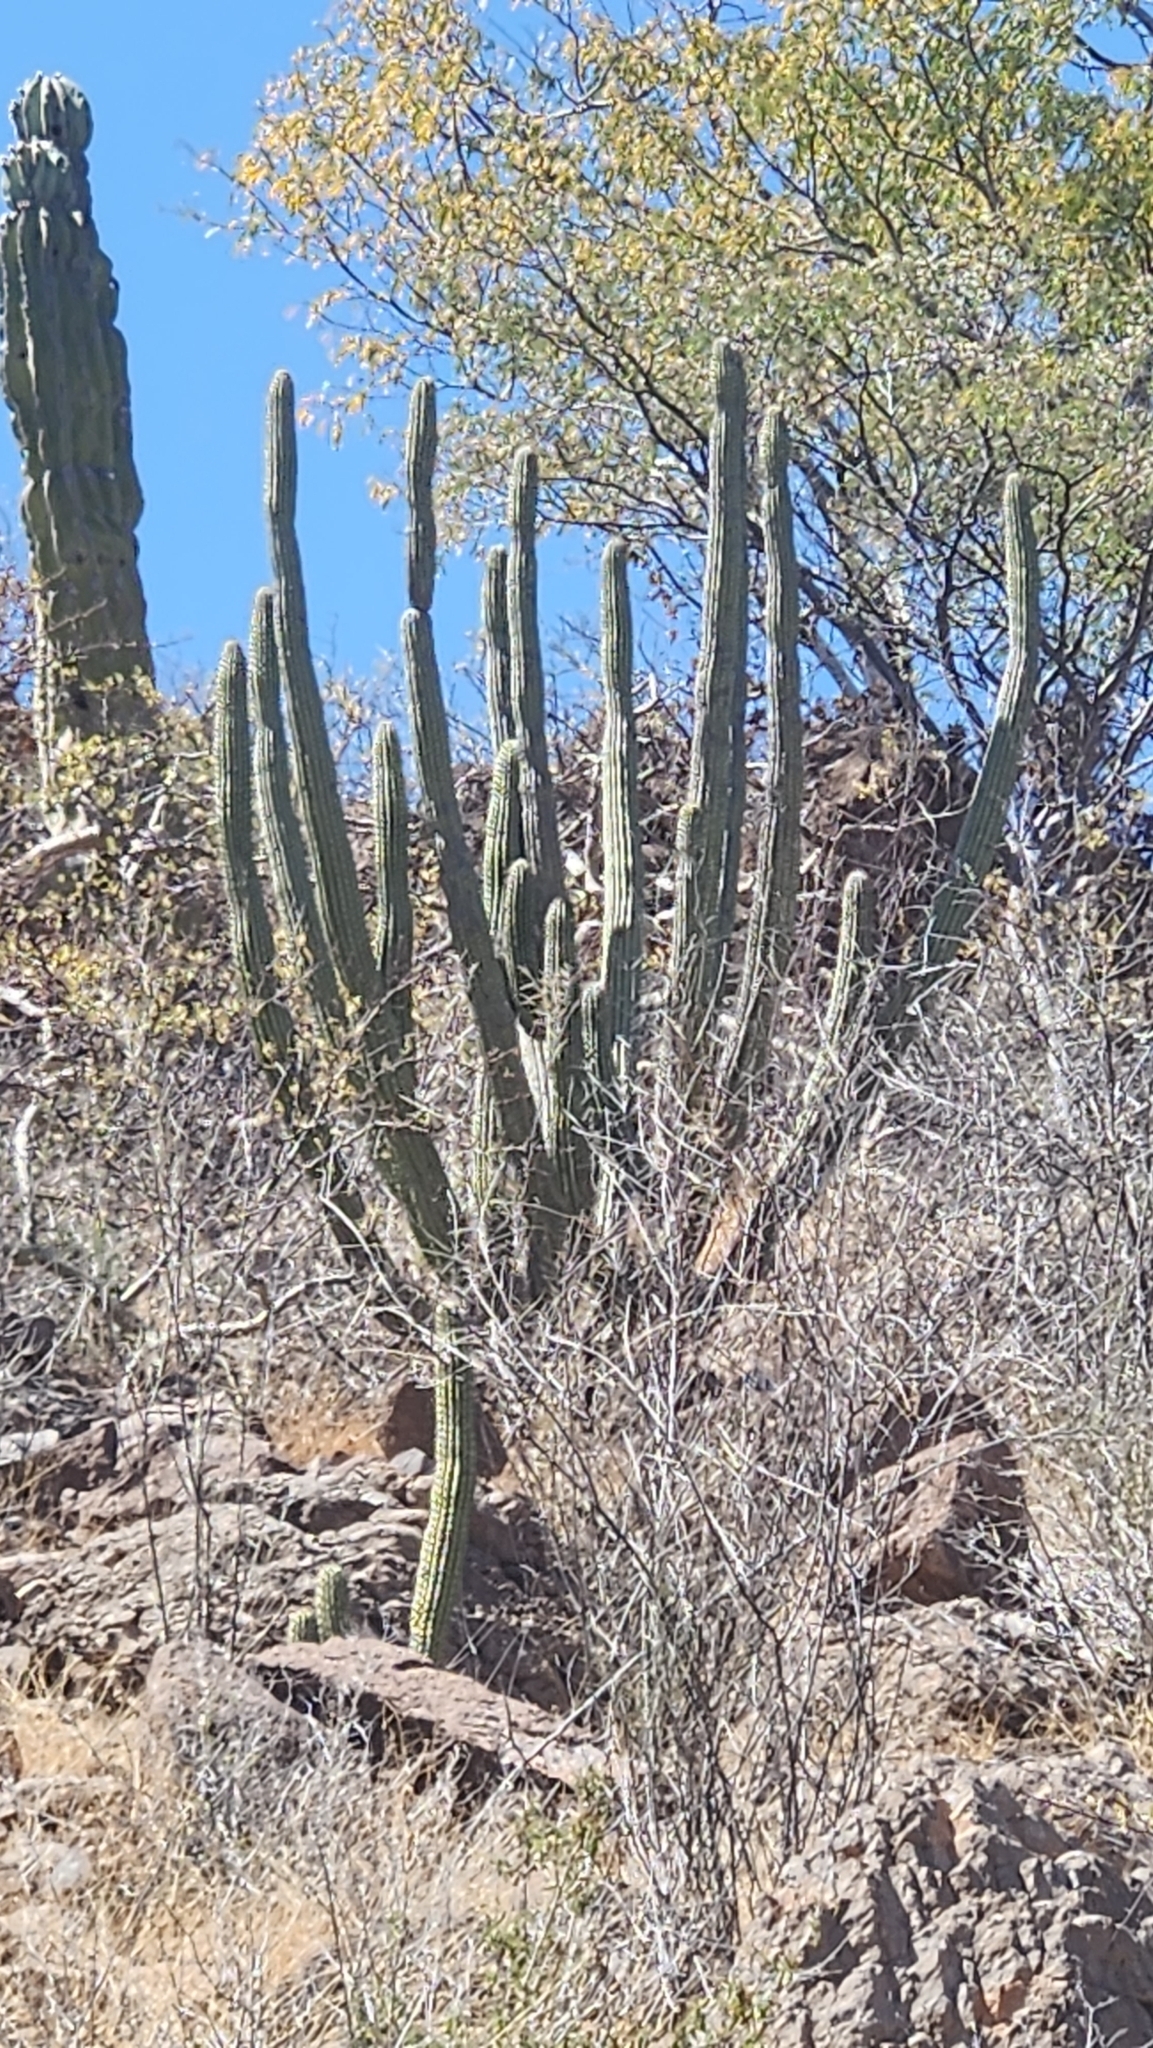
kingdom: Plantae
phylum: Tracheophyta
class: Magnoliopsida
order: Caryophyllales
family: Cactaceae
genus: Stenocereus
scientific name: Stenocereus thurberi
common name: Organ pipe cactus
